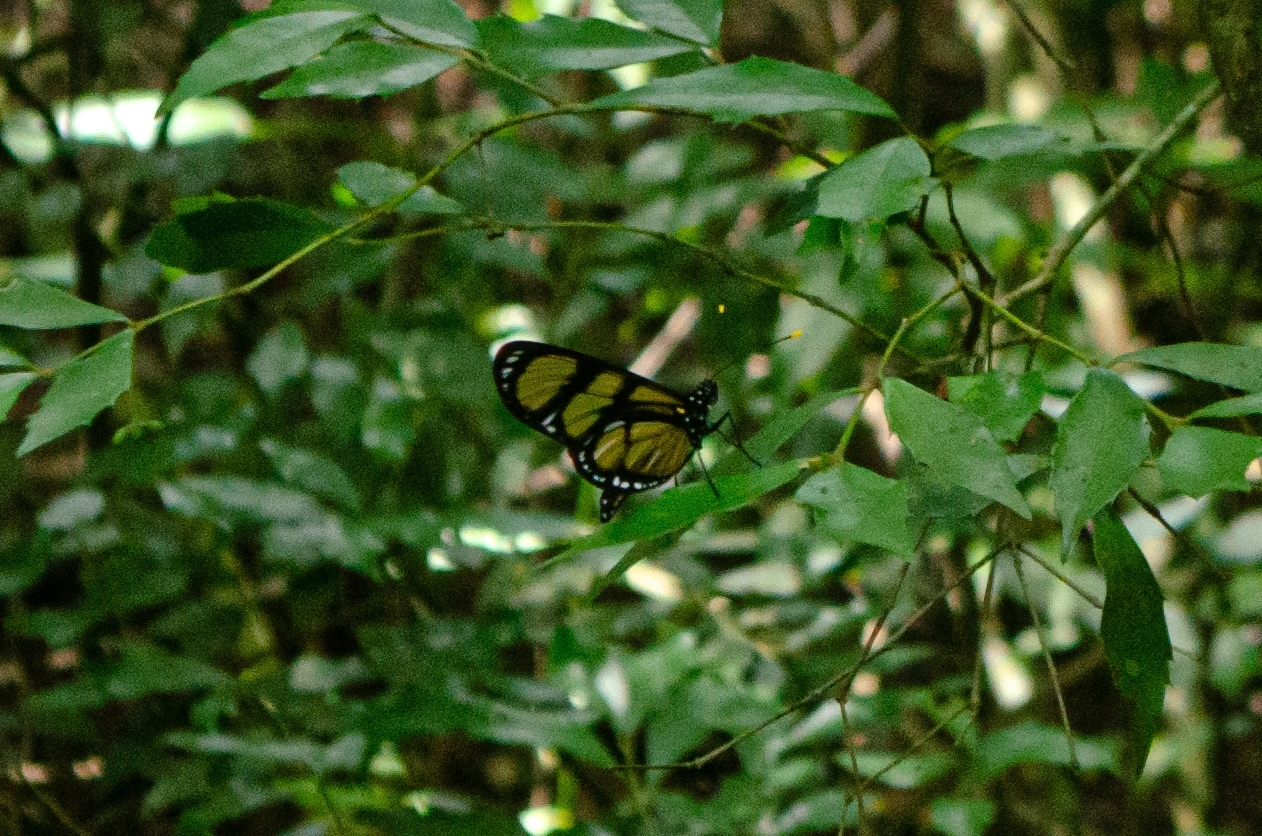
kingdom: Animalia
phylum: Arthropoda
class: Insecta
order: Lepidoptera
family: Nymphalidae
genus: Methona
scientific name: Methona themisto
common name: Themisto amberwing
